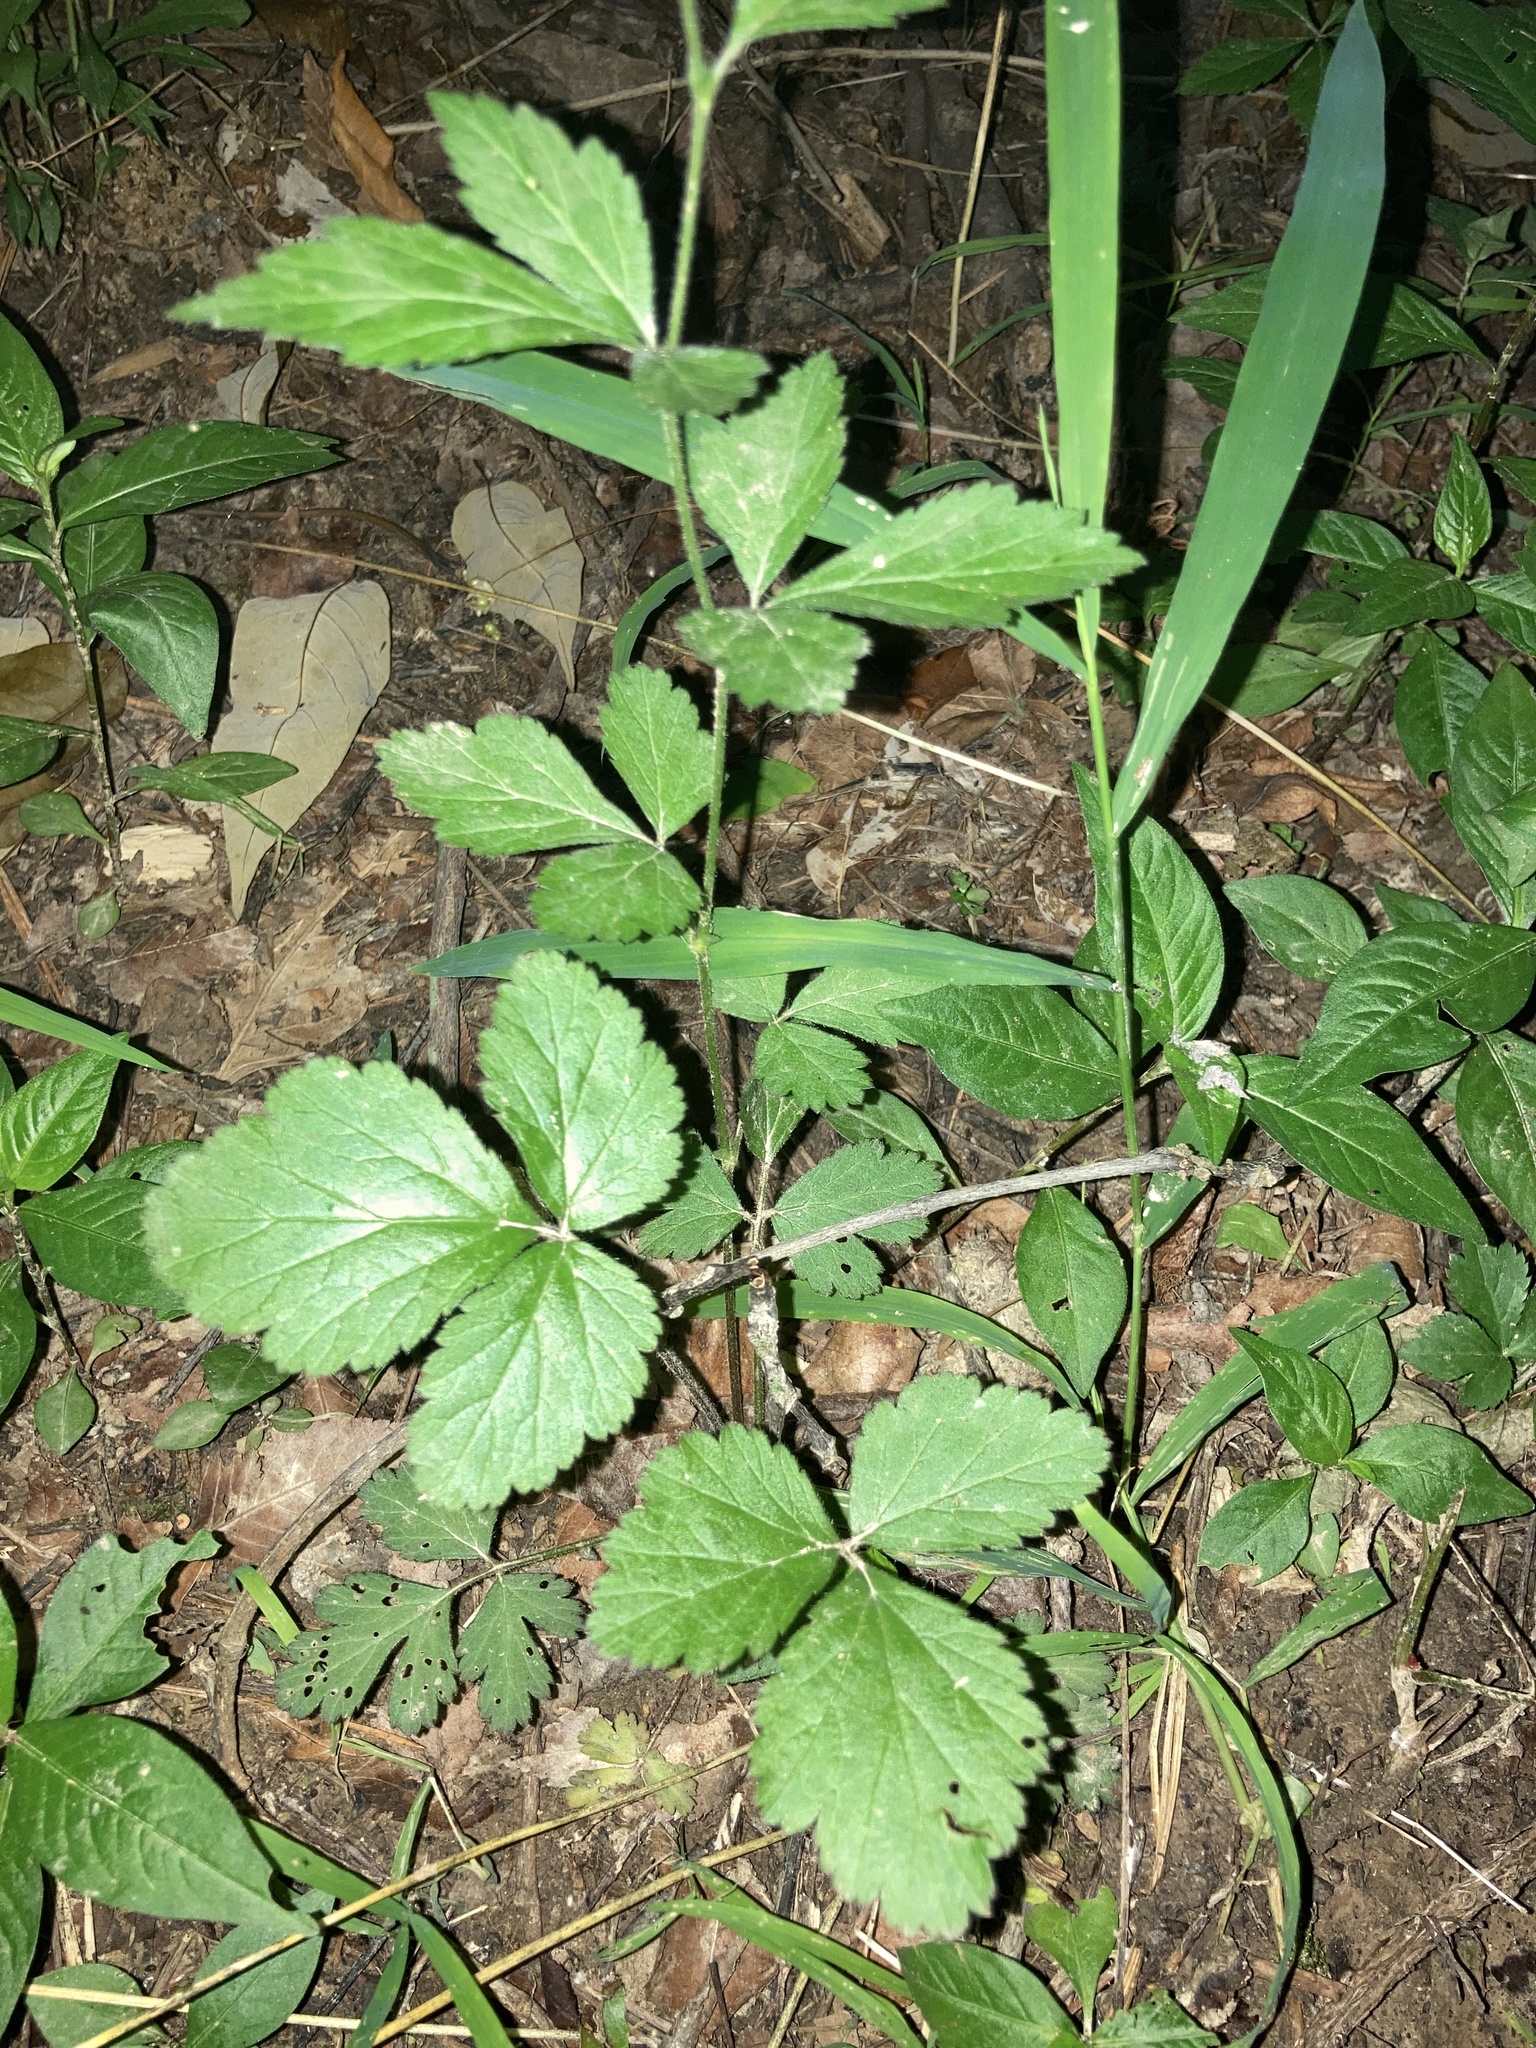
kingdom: Plantae
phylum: Tracheophyta
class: Magnoliopsida
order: Rosales
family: Rosaceae
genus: Geum
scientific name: Geum canadense
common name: White avens
